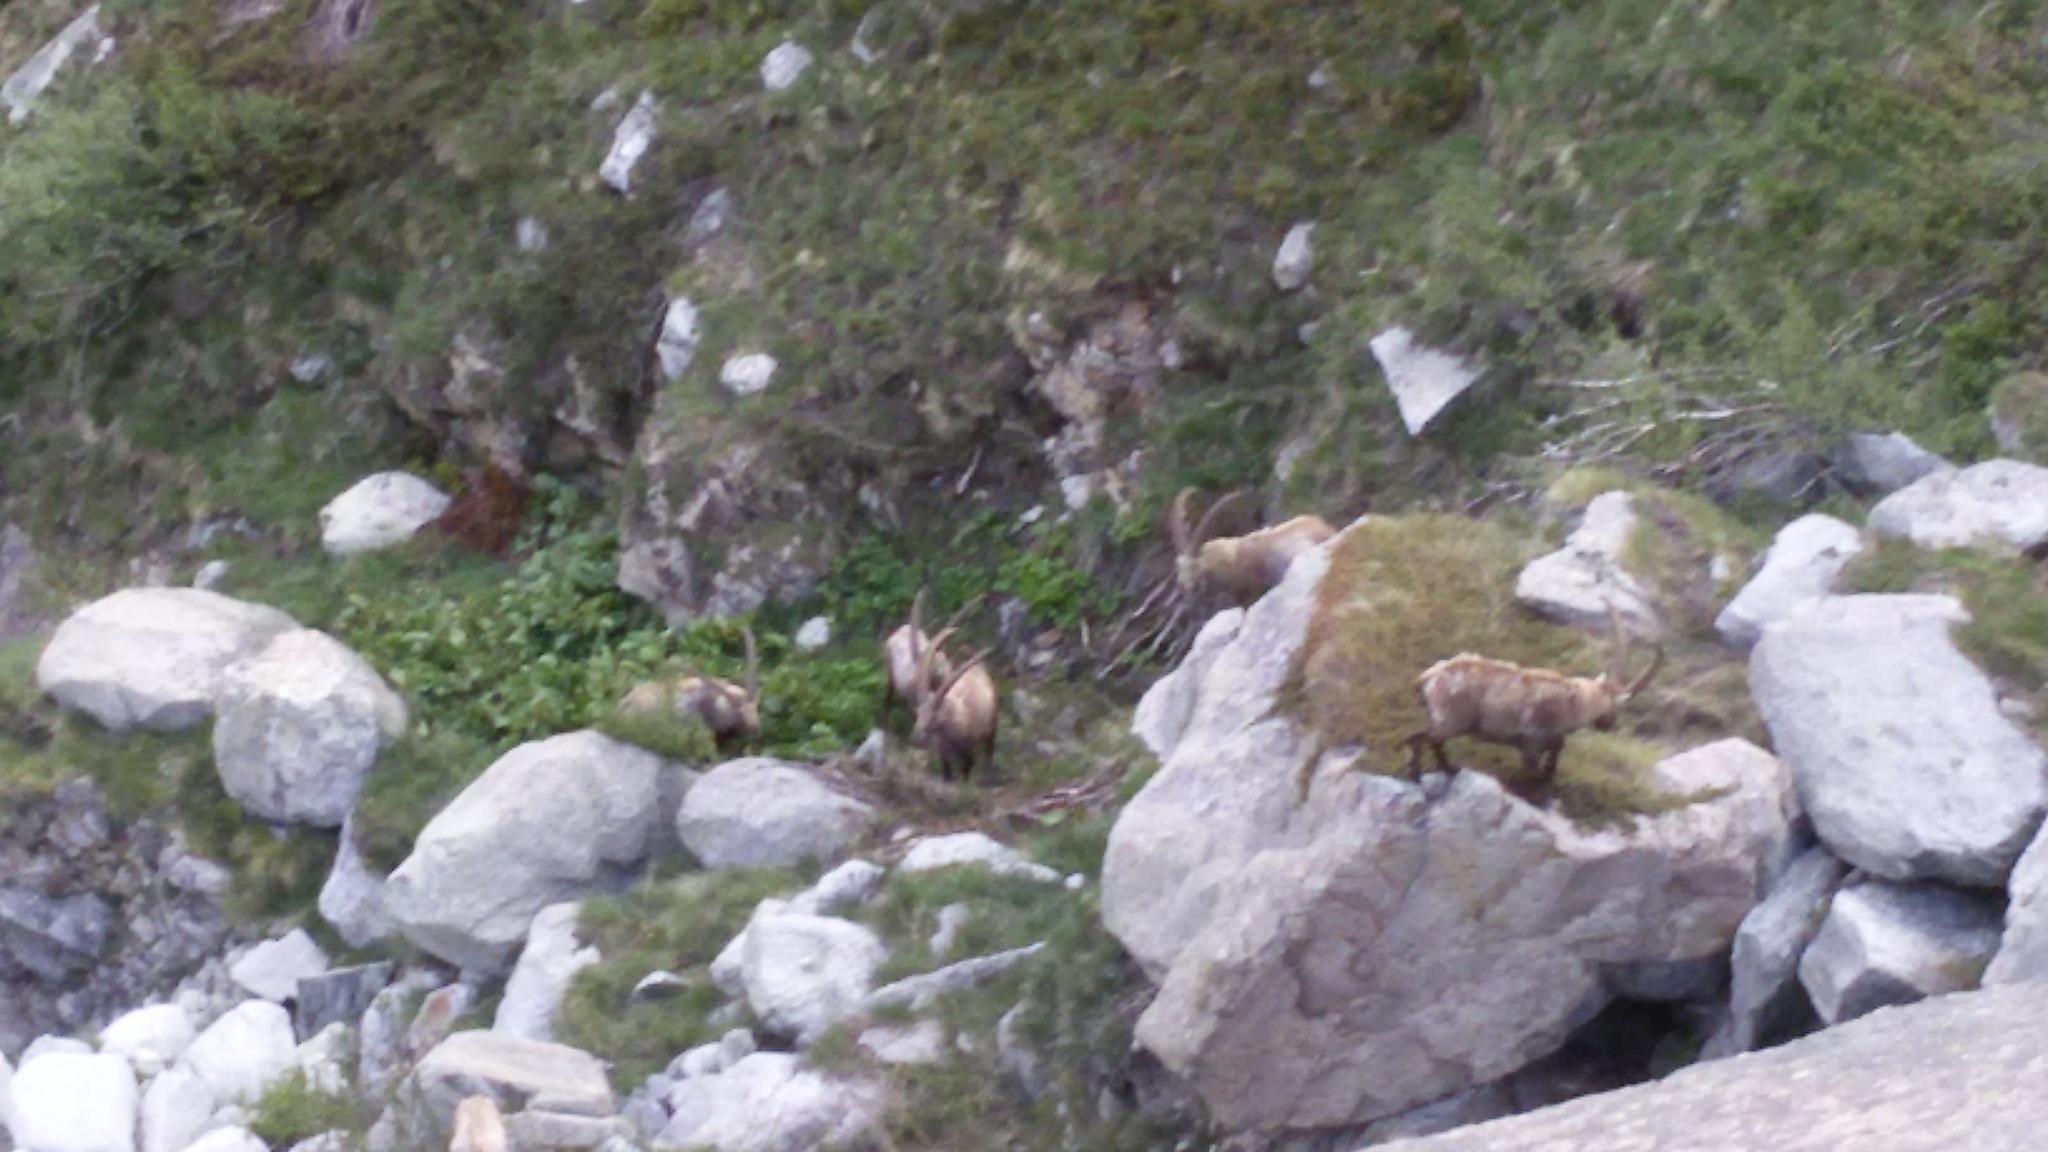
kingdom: Animalia
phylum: Chordata
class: Mammalia
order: Artiodactyla
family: Bovidae
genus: Capra
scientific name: Capra ibex
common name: Alpine ibex
